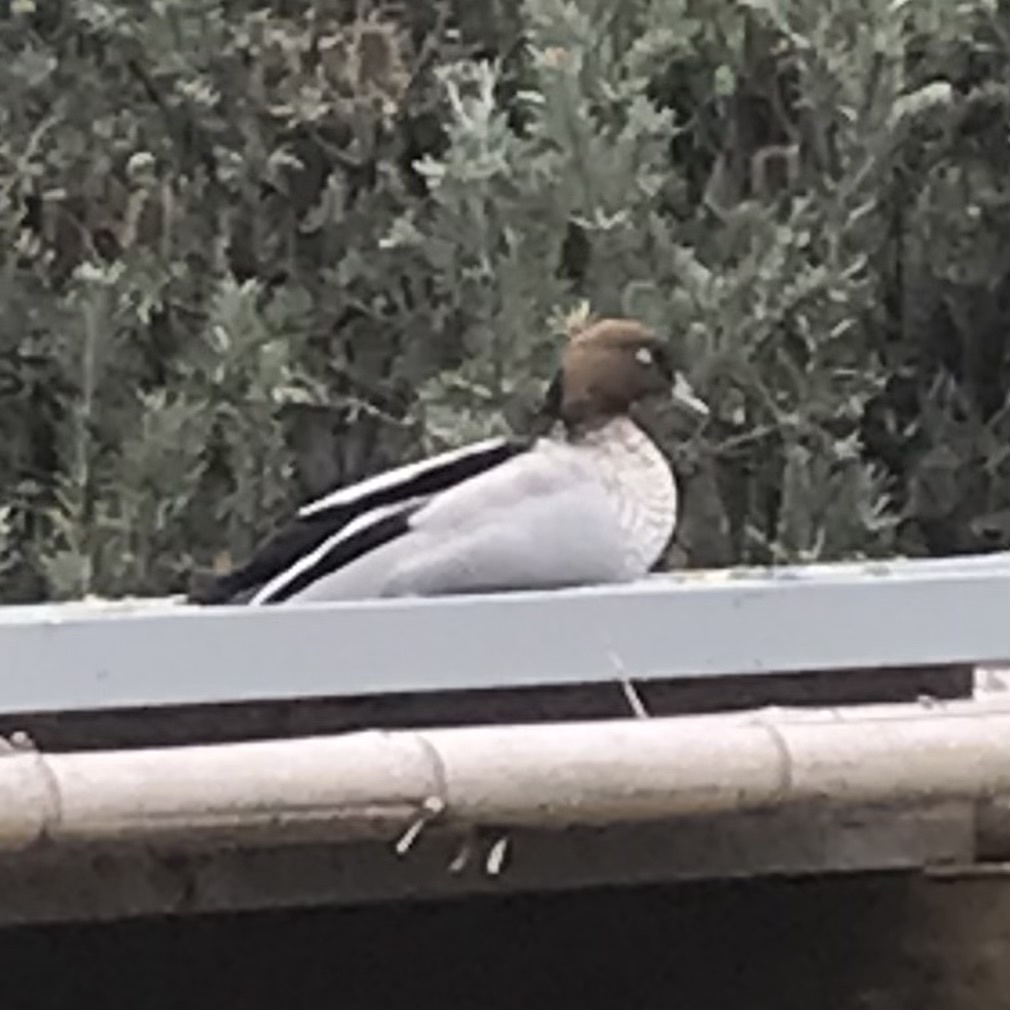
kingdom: Animalia
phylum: Chordata
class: Aves
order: Anseriformes
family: Anatidae
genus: Chenonetta
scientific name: Chenonetta jubata
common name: Maned duck
